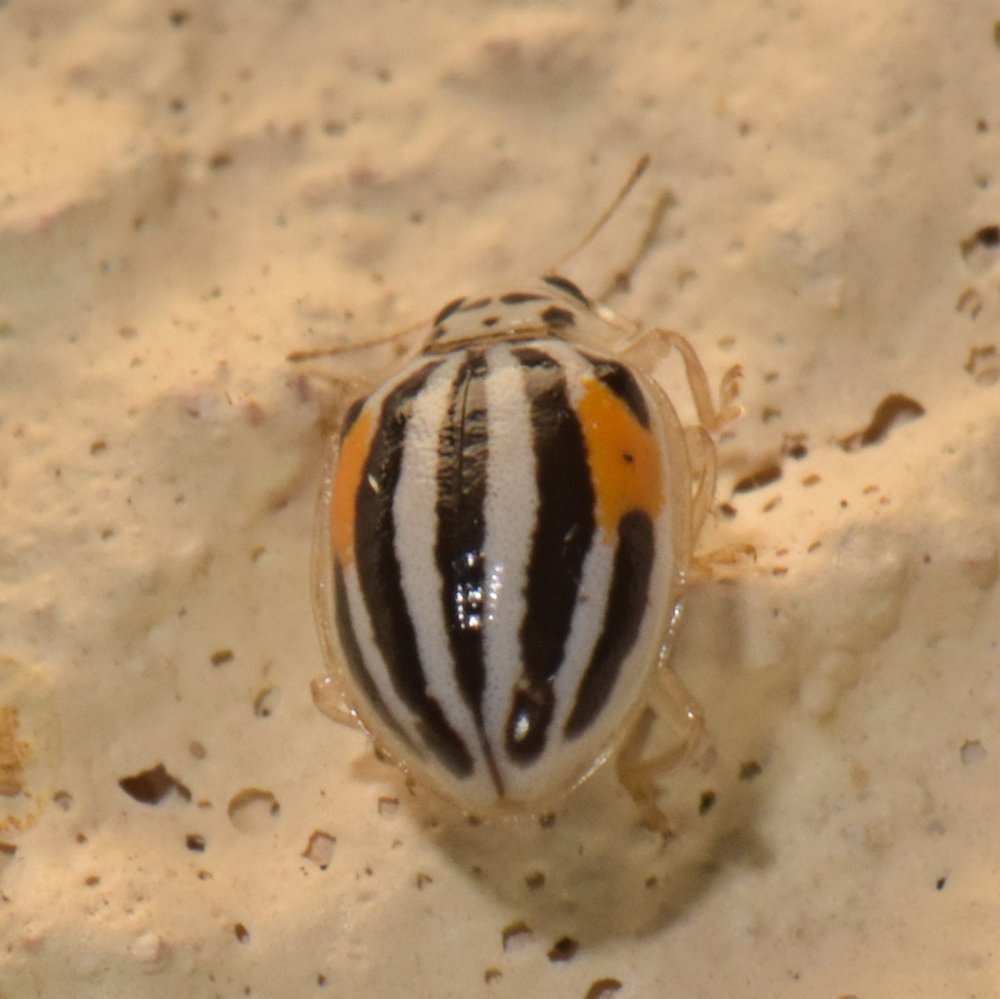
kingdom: Animalia
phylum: Arthropoda
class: Insecta
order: Coleoptera
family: Coccinellidae
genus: Psyllobora
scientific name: Psyllobora
